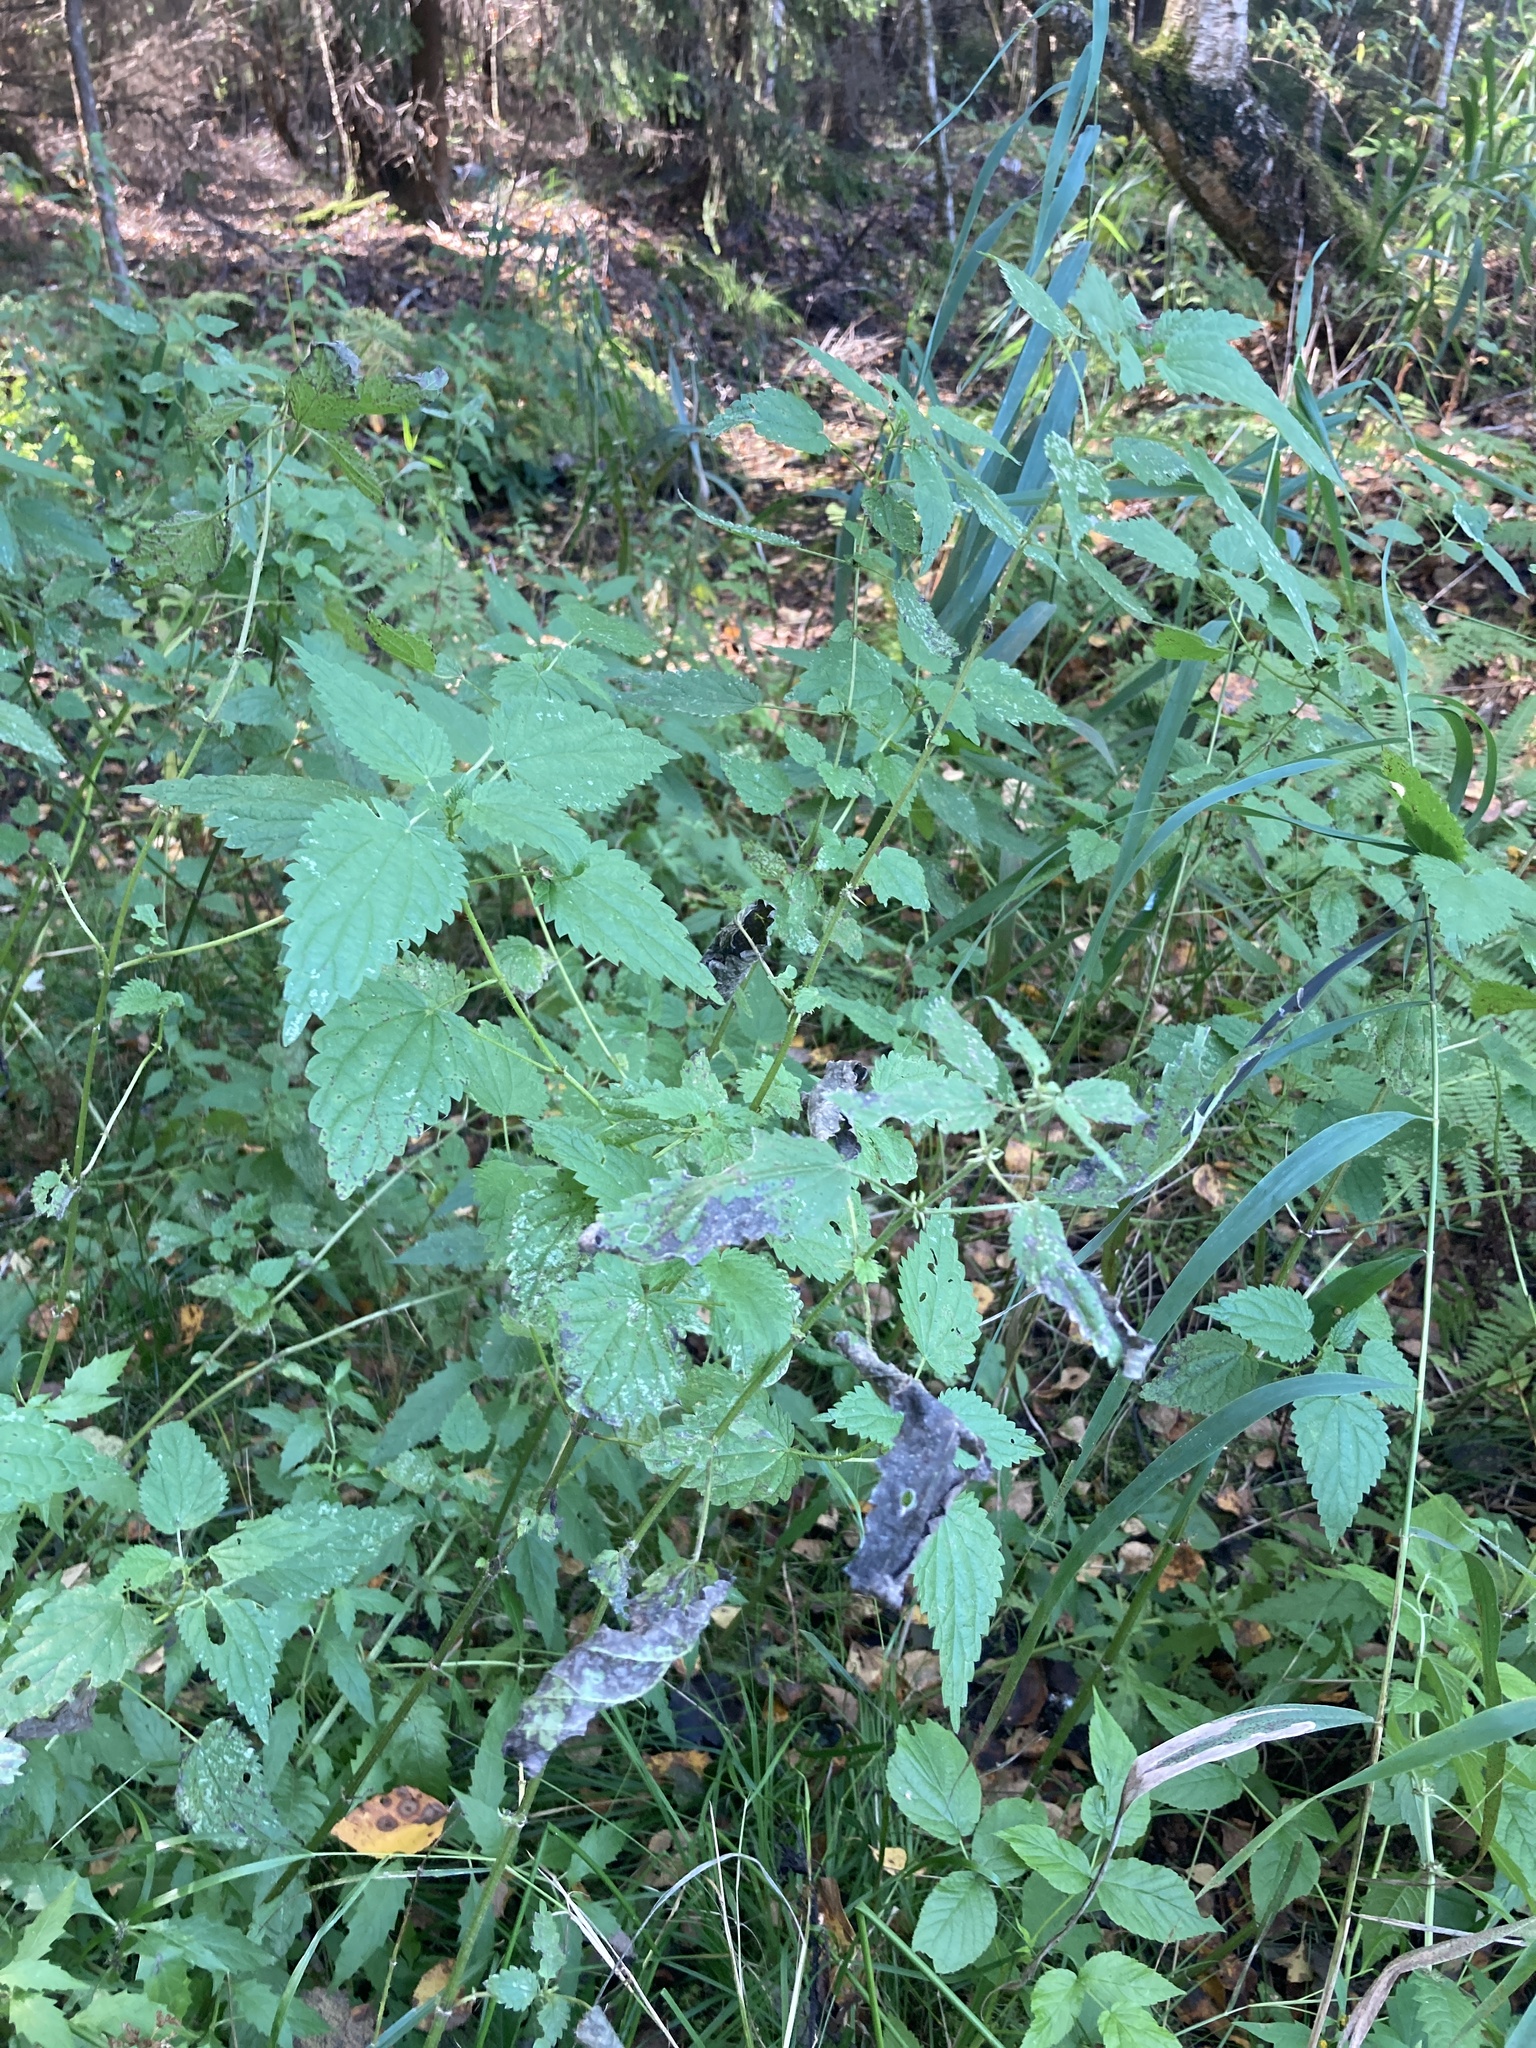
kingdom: Plantae
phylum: Tracheophyta
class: Magnoliopsida
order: Rosales
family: Urticaceae
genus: Urtica
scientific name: Urtica dioica
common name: Common nettle
